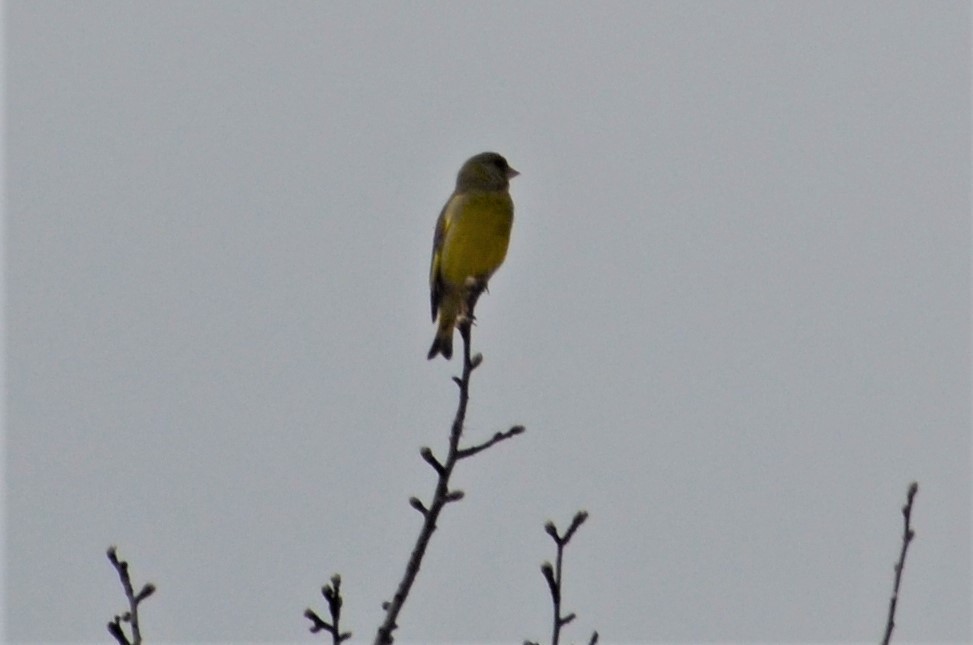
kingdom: Plantae
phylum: Tracheophyta
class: Liliopsida
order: Poales
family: Poaceae
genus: Chloris
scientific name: Chloris chloris
